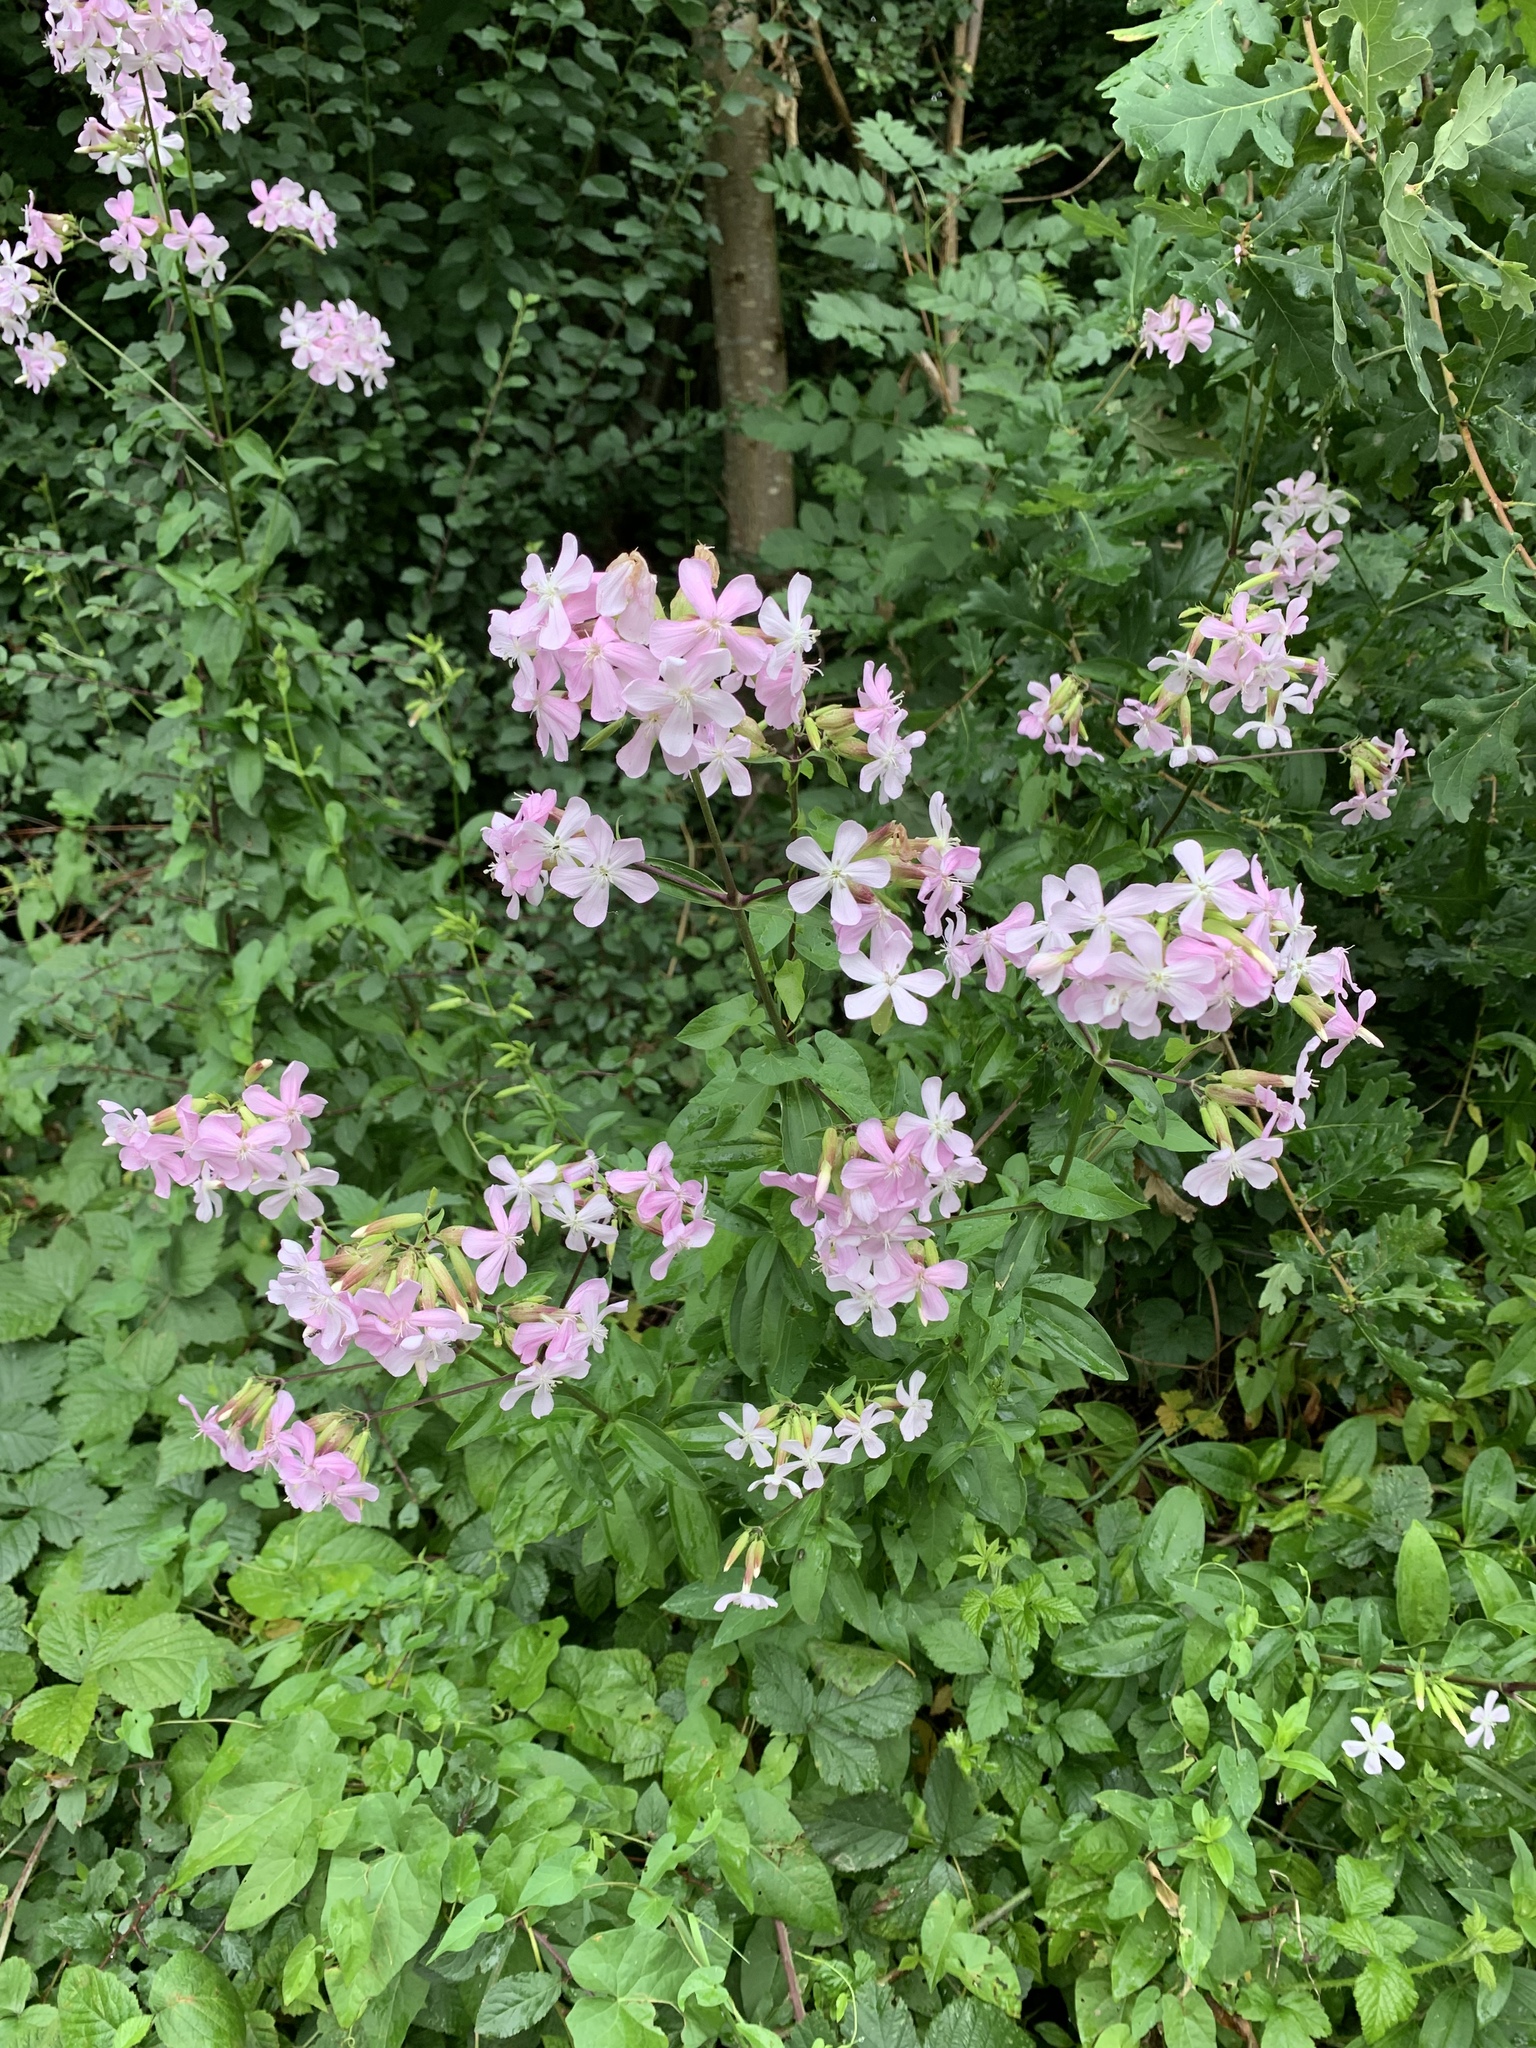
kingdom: Plantae
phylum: Tracheophyta
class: Magnoliopsida
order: Caryophyllales
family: Caryophyllaceae
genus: Saponaria
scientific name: Saponaria officinalis
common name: Soapwort
